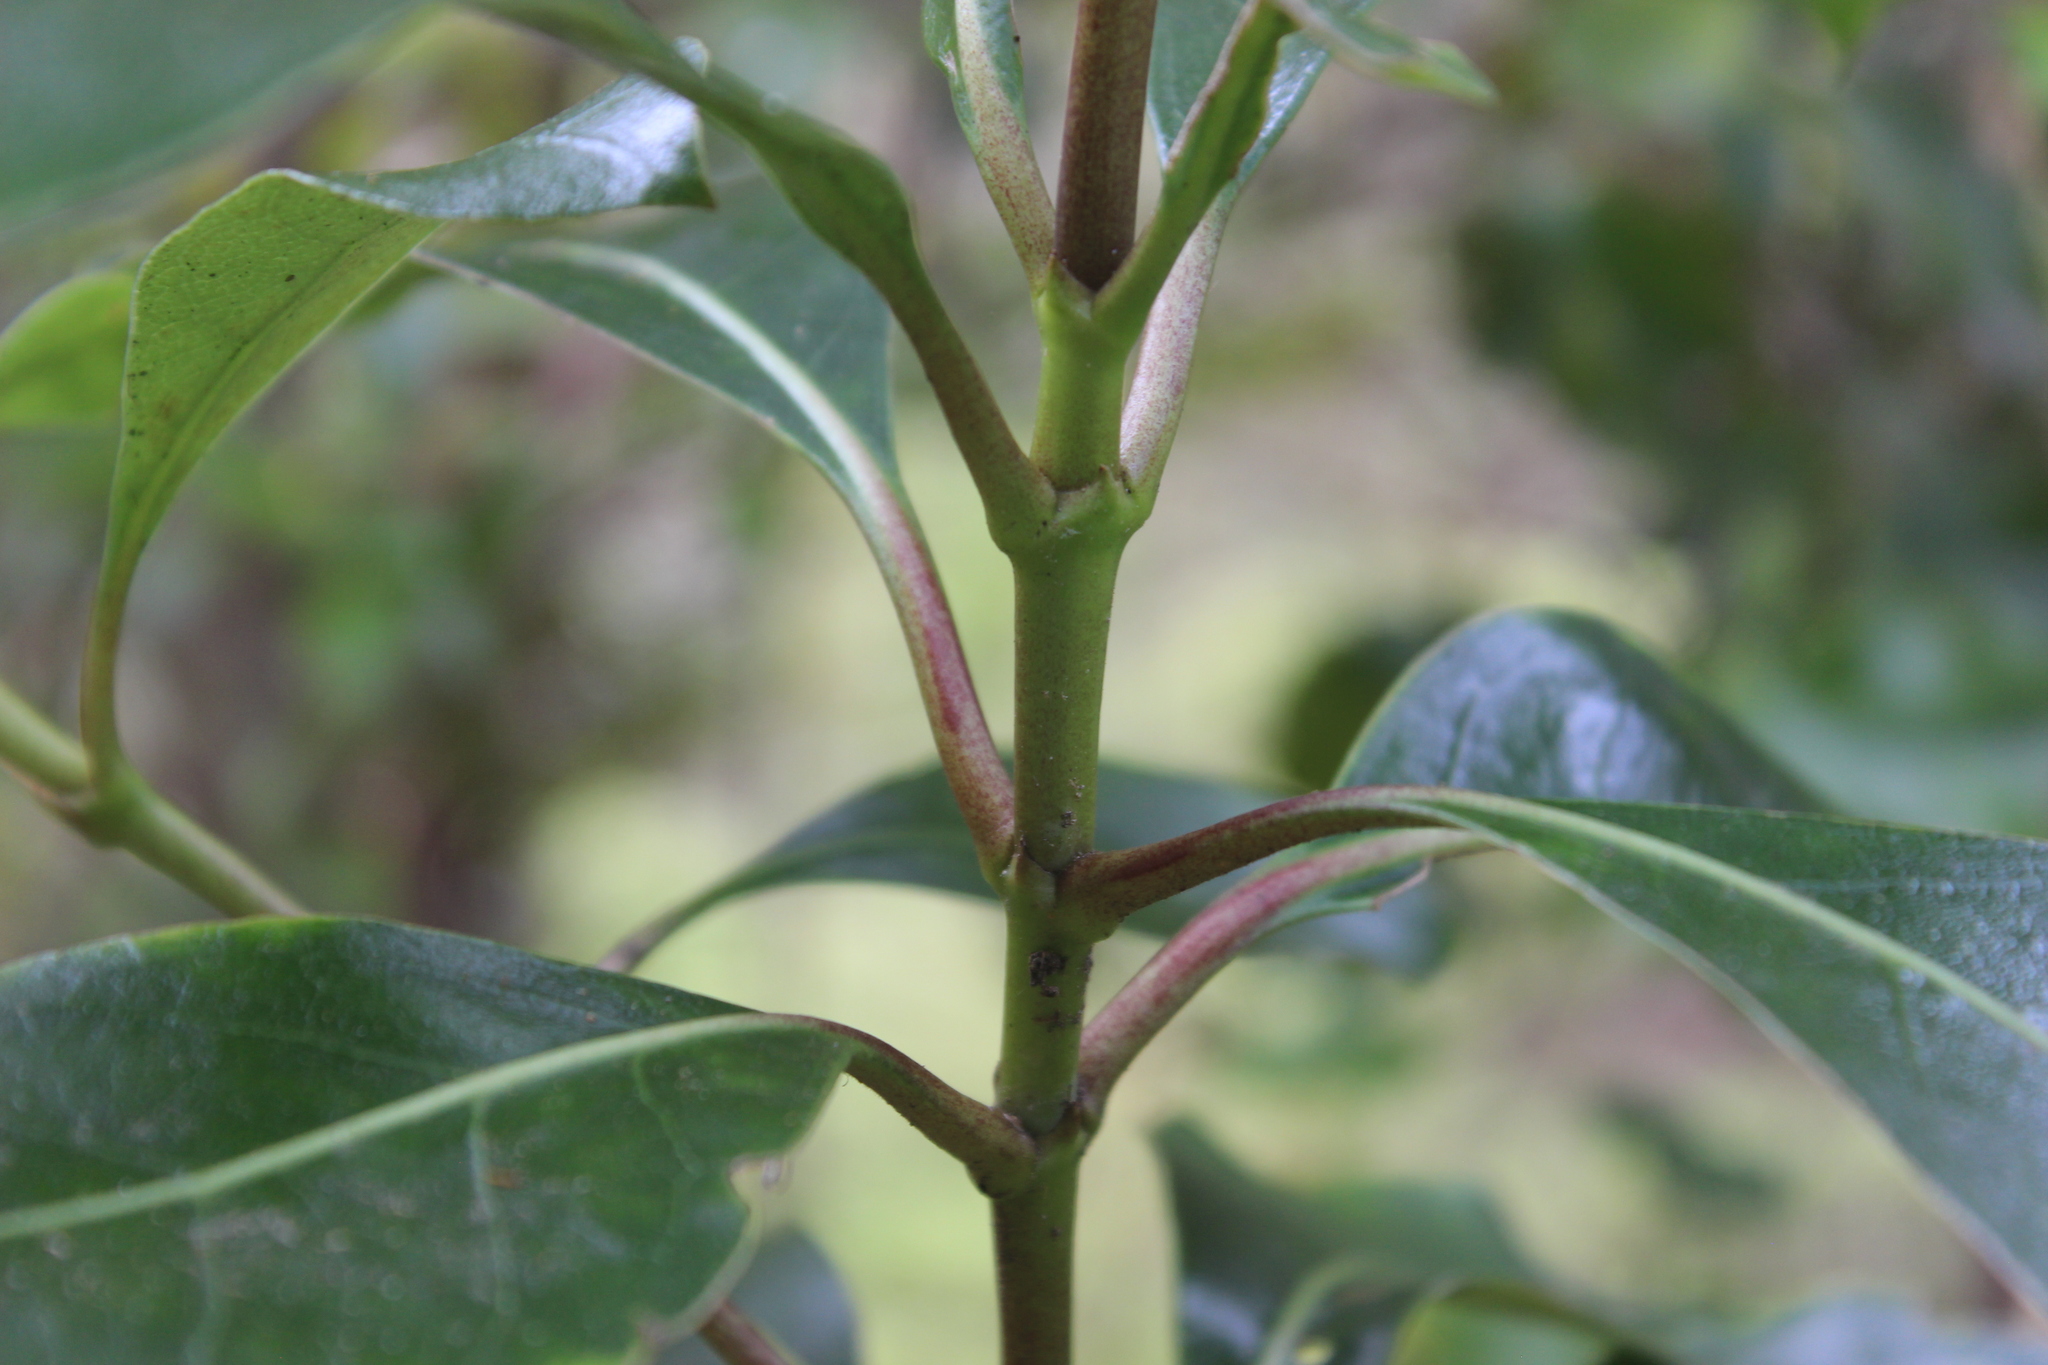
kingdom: Plantae
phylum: Tracheophyta
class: Magnoliopsida
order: Gentianales
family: Rubiaceae
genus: Coprosma
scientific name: Coprosma lucida
